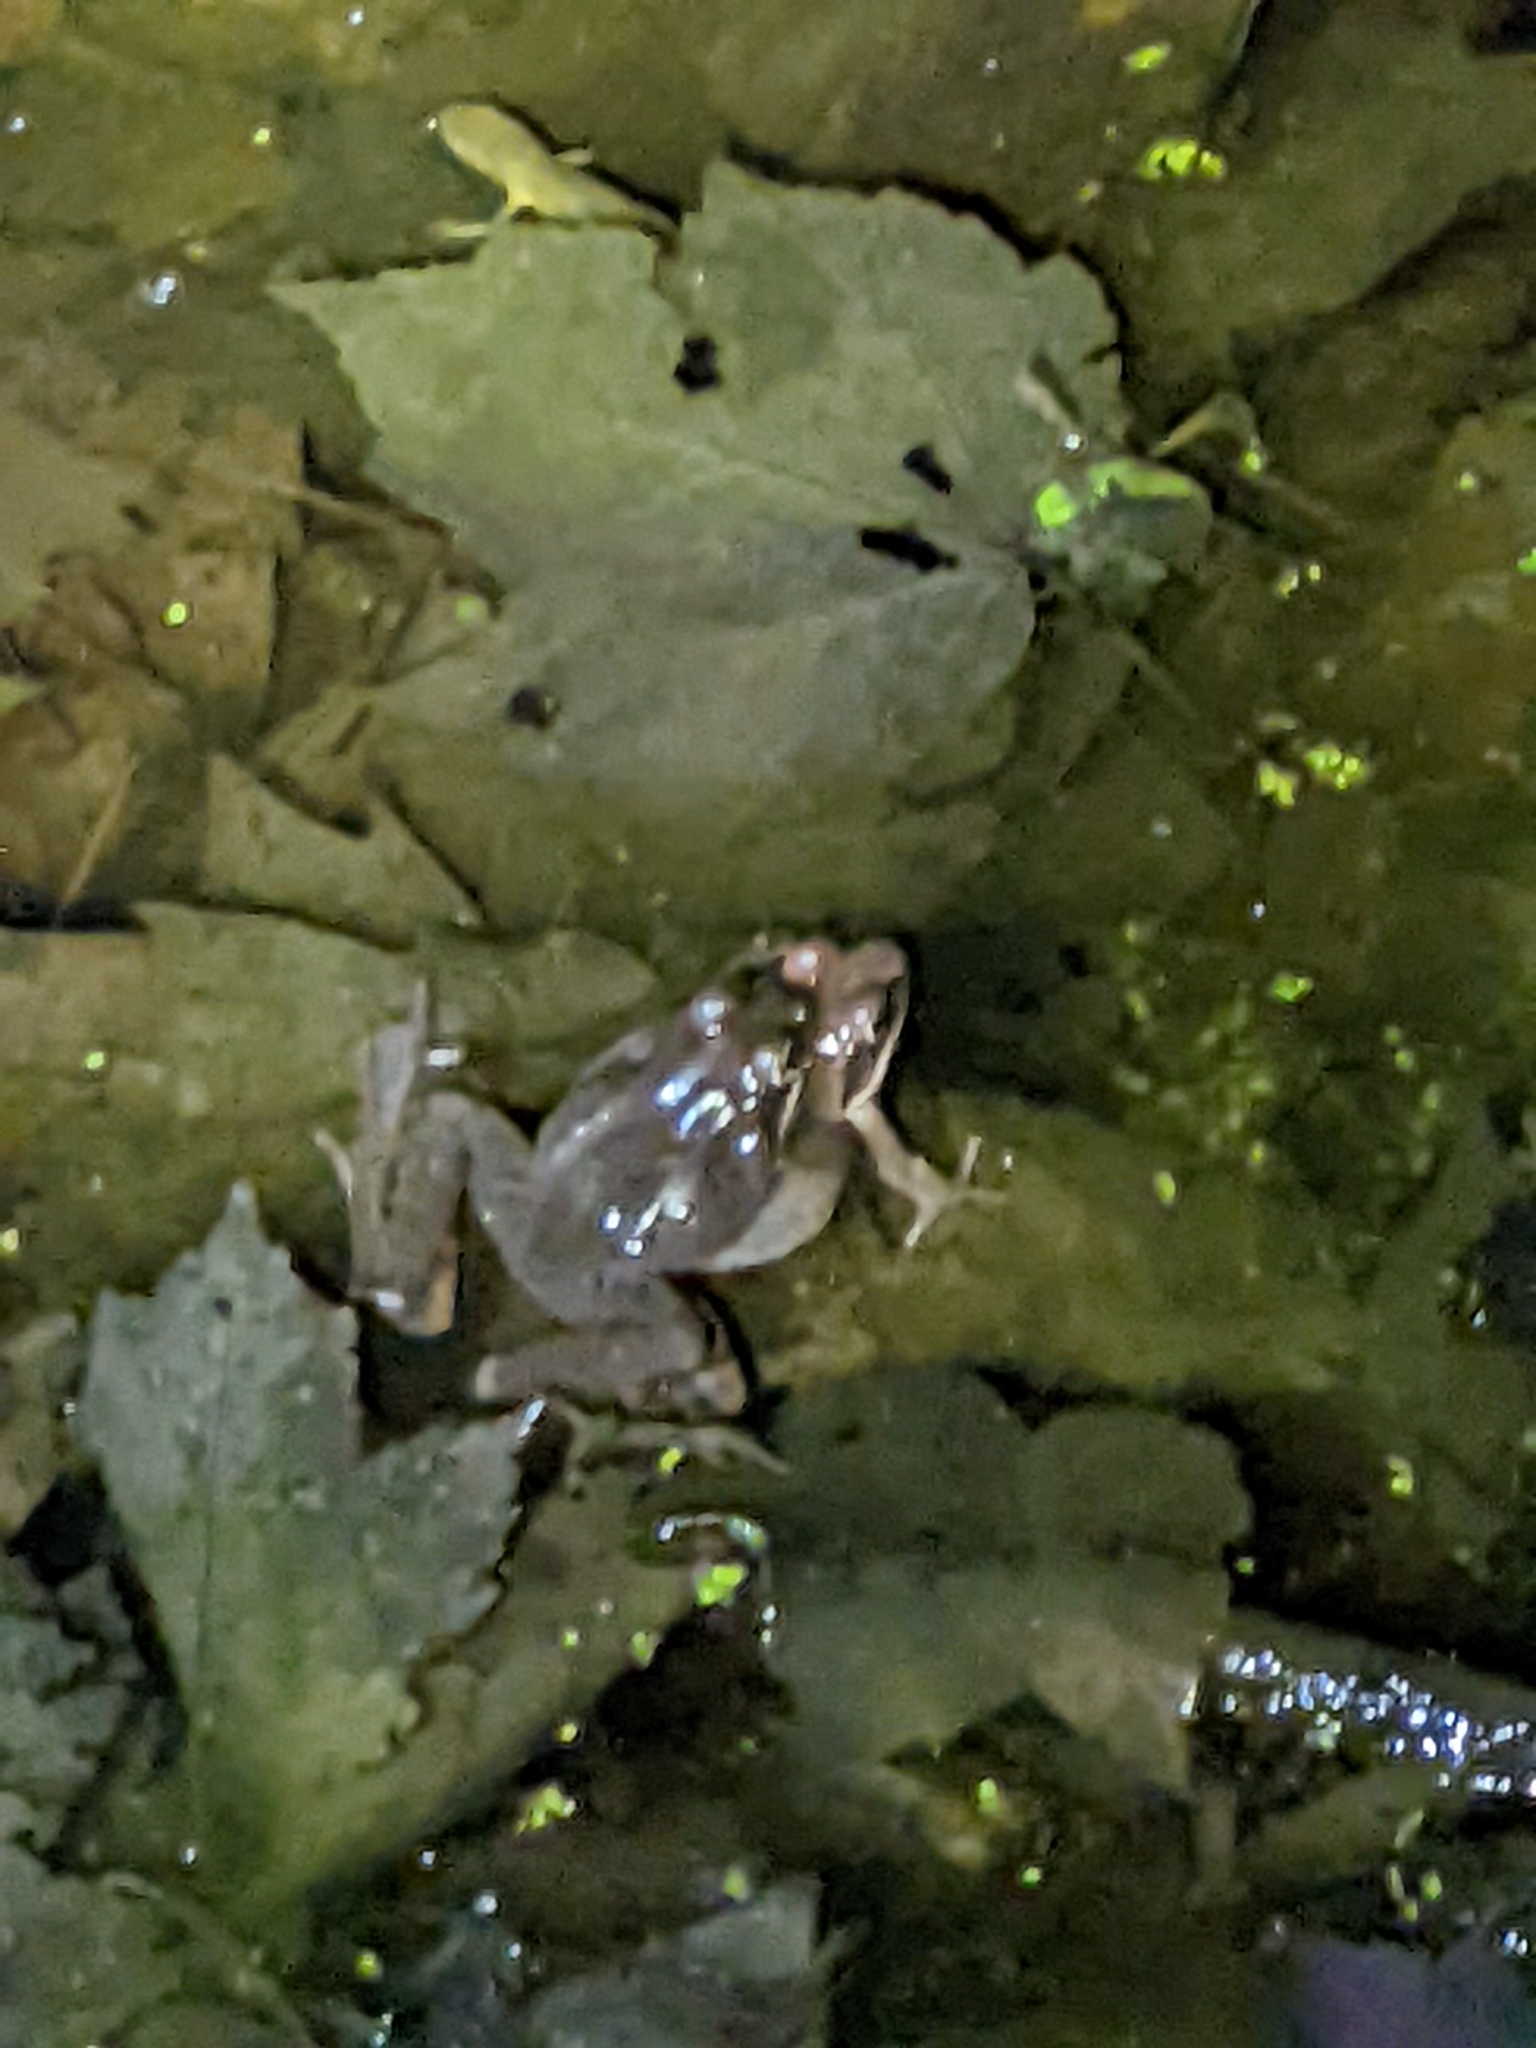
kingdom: Animalia
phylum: Chordata
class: Amphibia
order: Anura
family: Ranidae
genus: Lithobates
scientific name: Lithobates sylvaticus
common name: Wood frog
